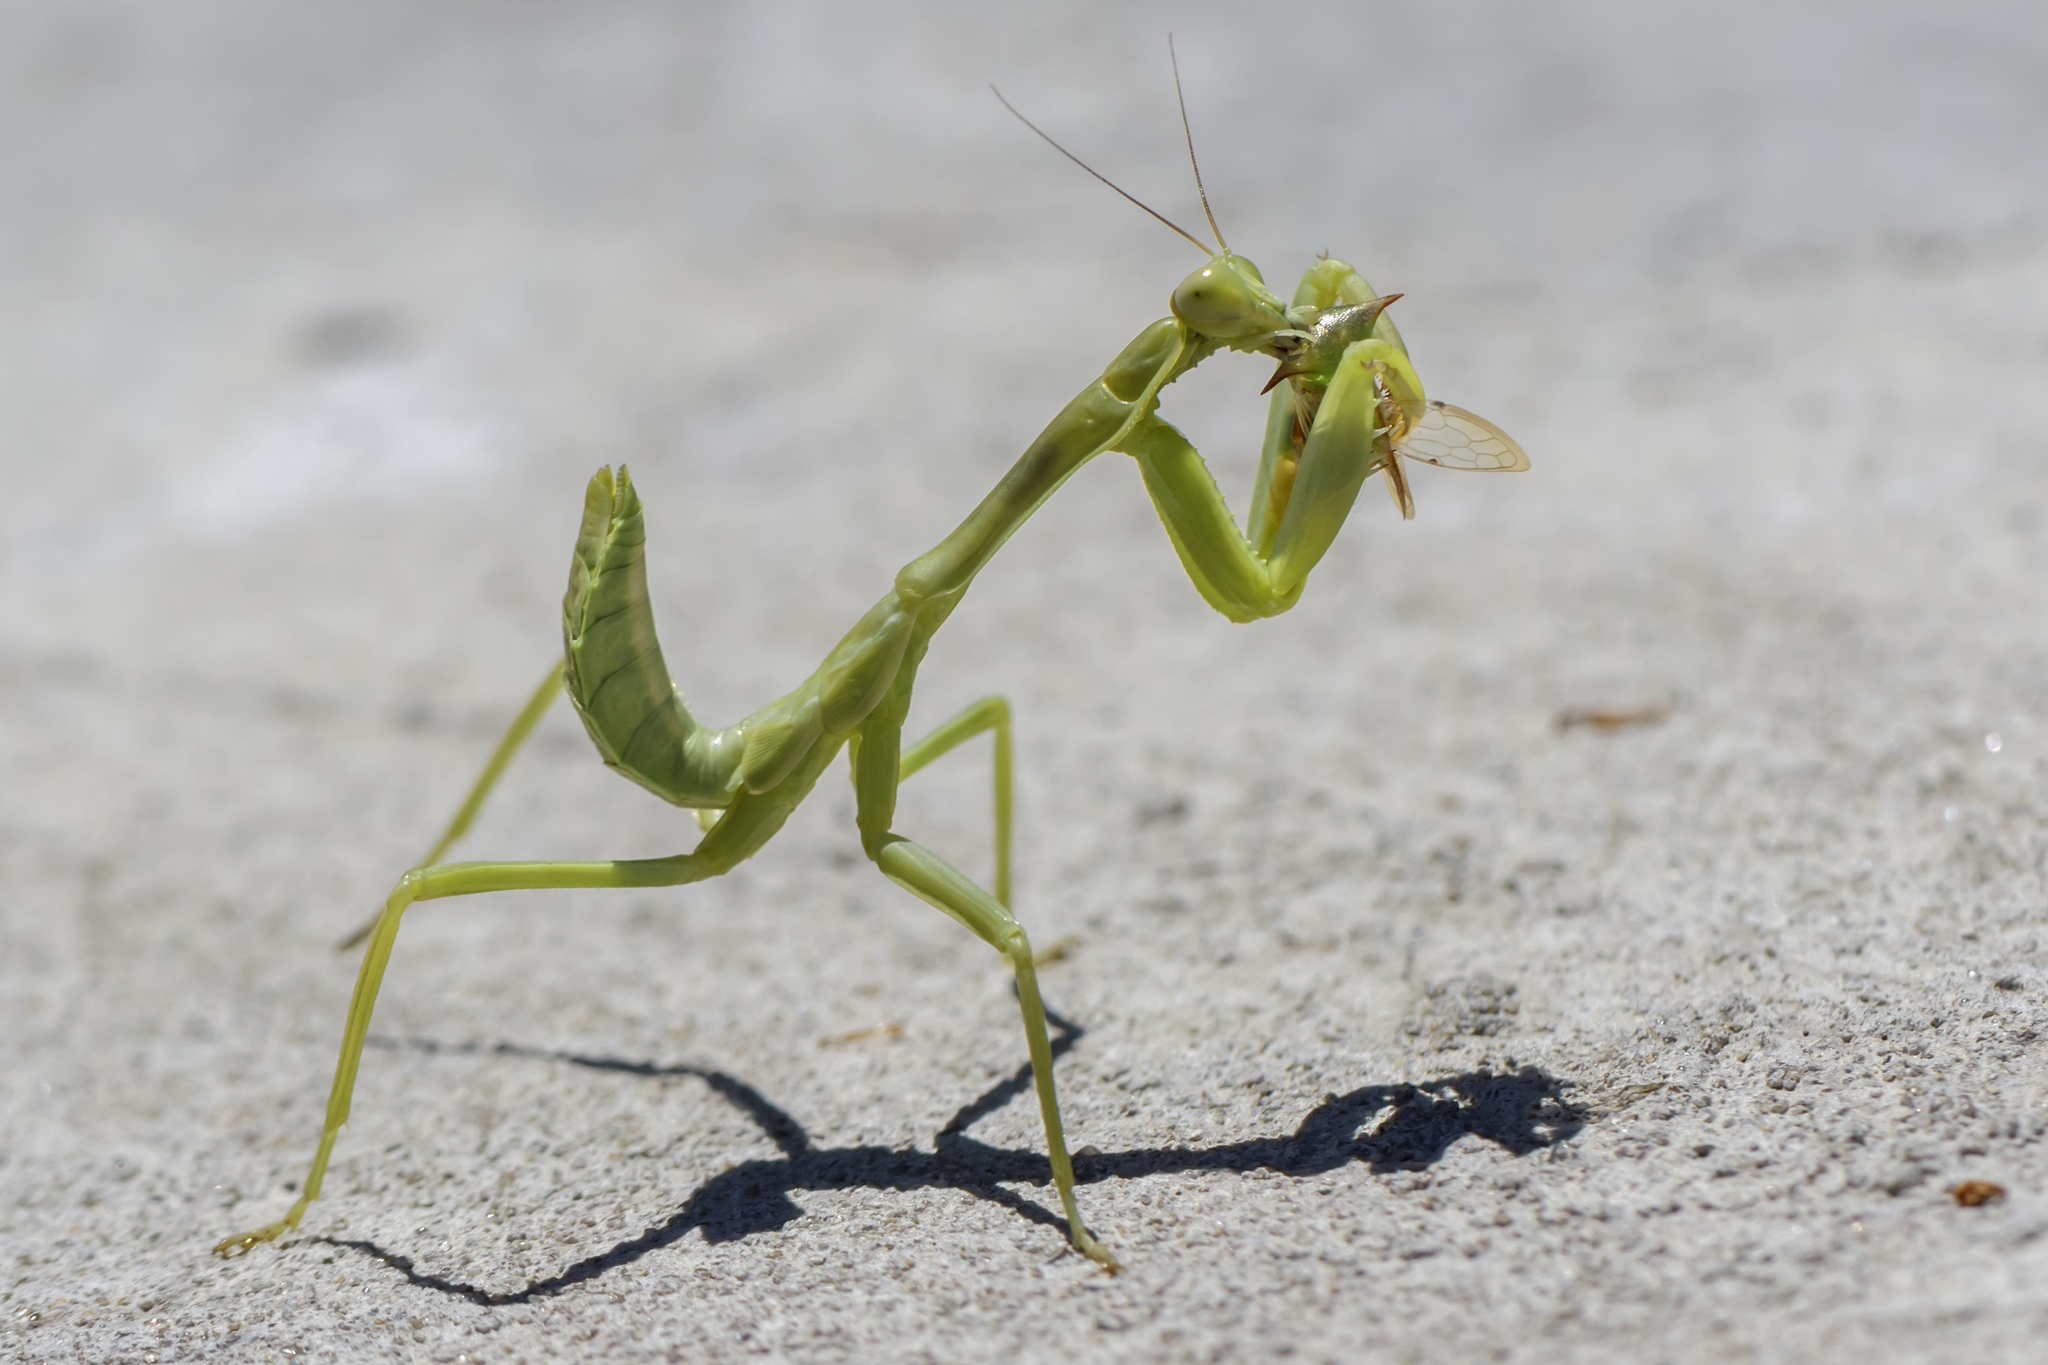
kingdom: Animalia
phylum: Arthropoda
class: Insecta
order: Mantodea
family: Mantidae
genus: Stagmatoptera
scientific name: Stagmatoptera hyaloptera
